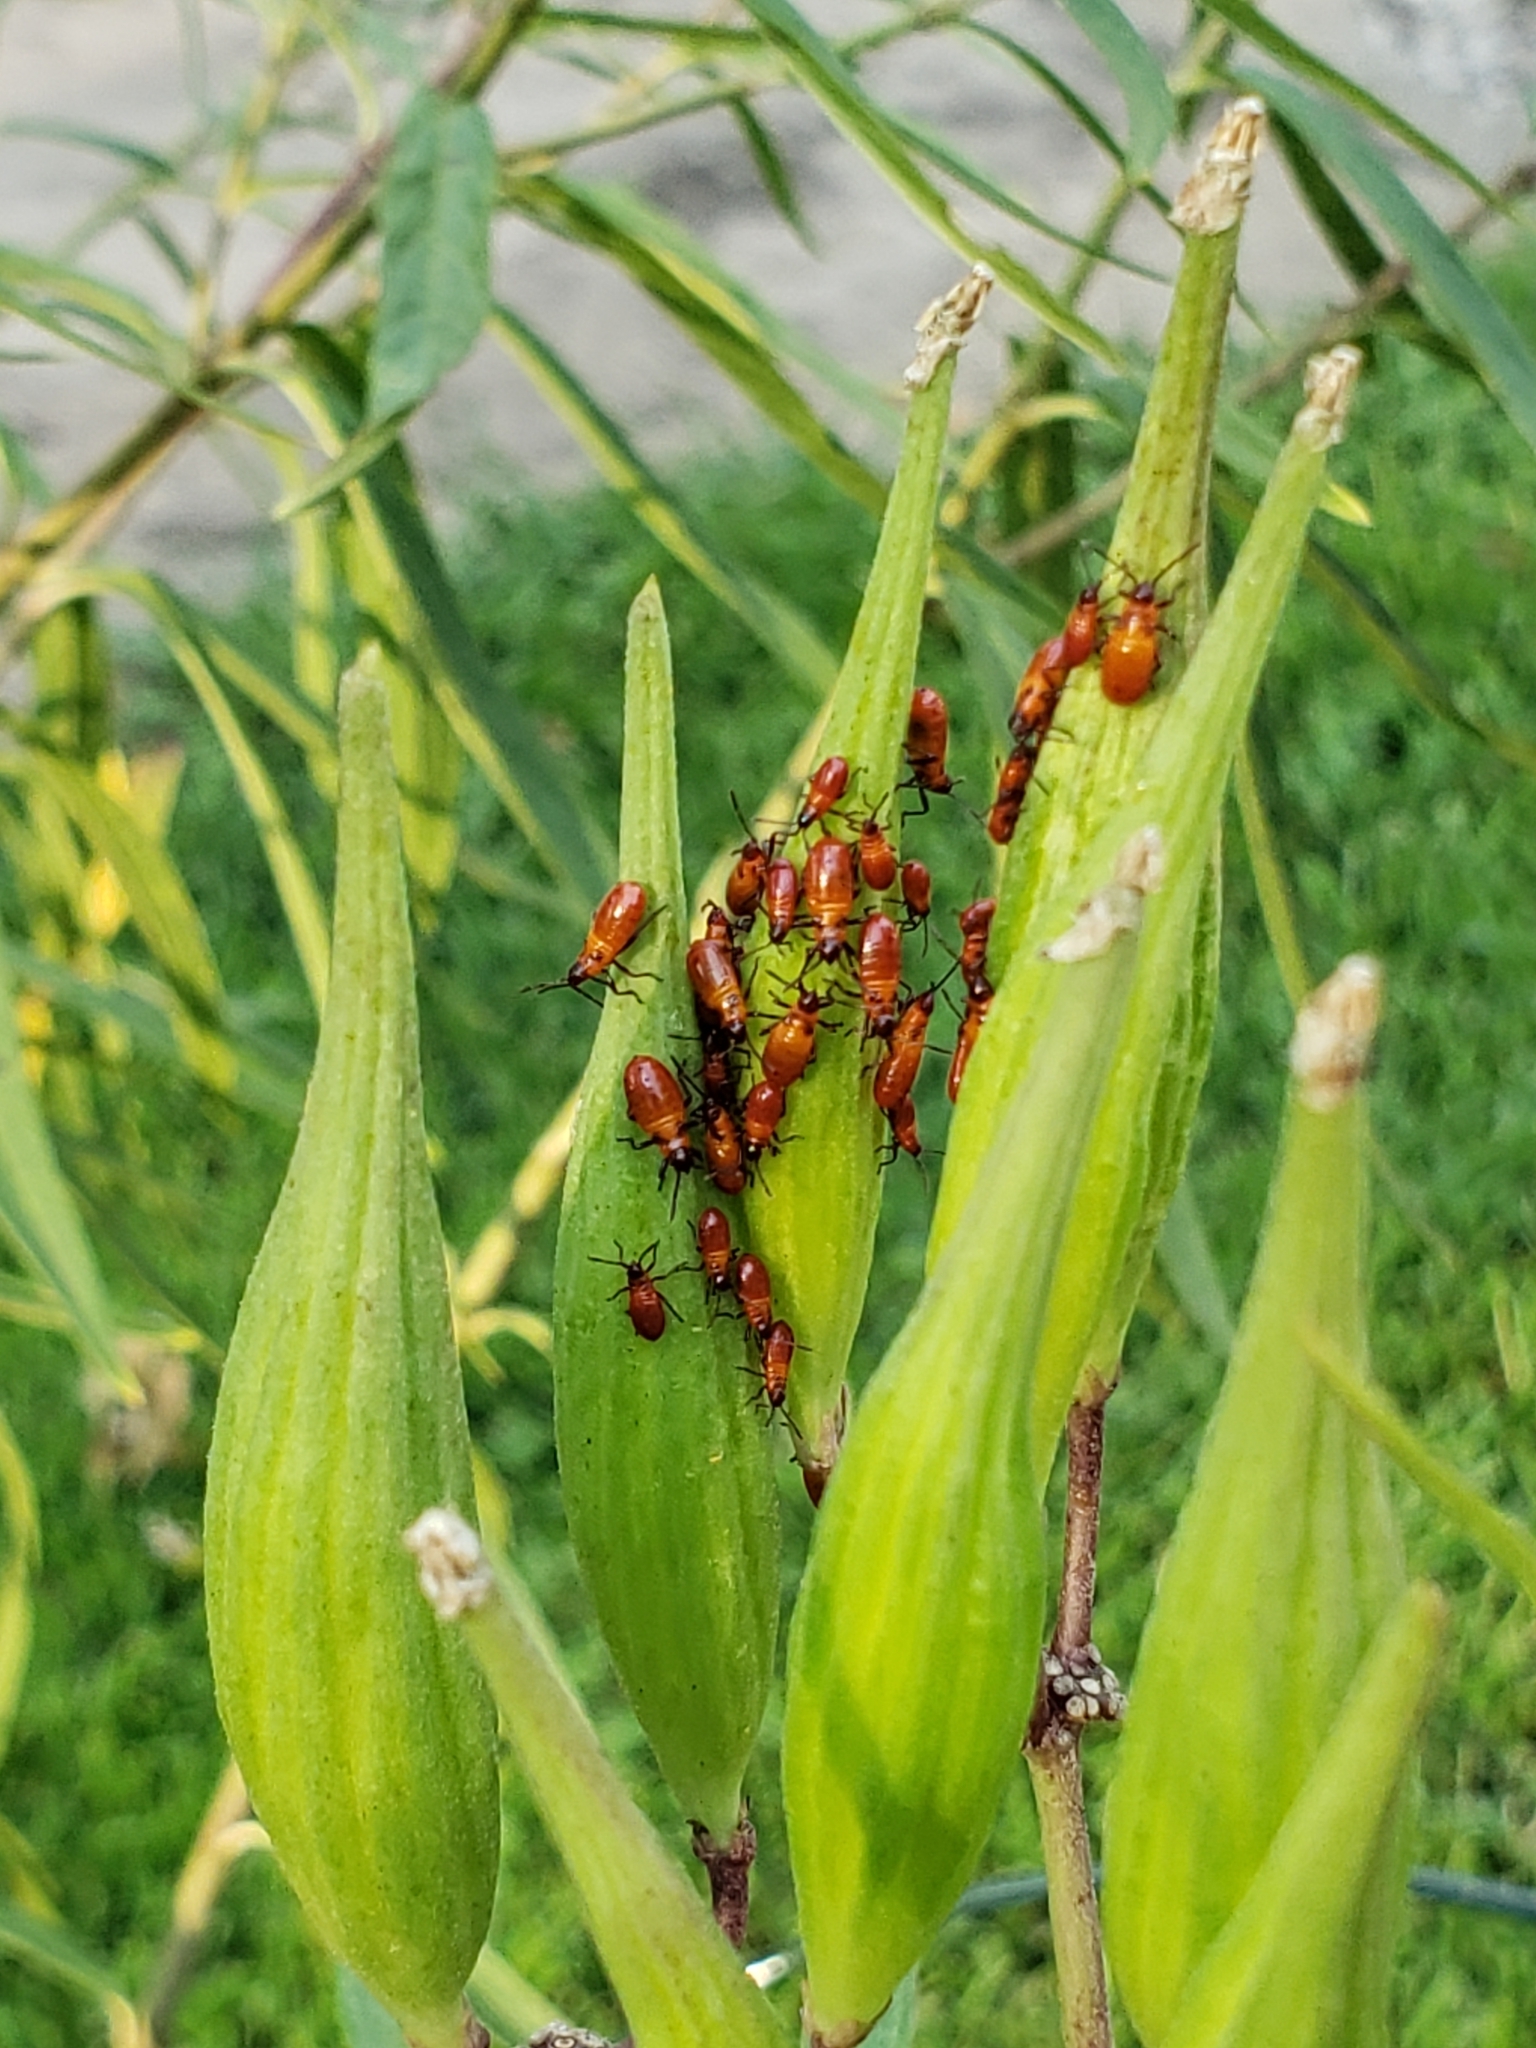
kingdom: Animalia
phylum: Arthropoda
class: Insecta
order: Hemiptera
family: Lygaeidae
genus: Oncopeltus
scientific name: Oncopeltus fasciatus
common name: Large milkweed bug
